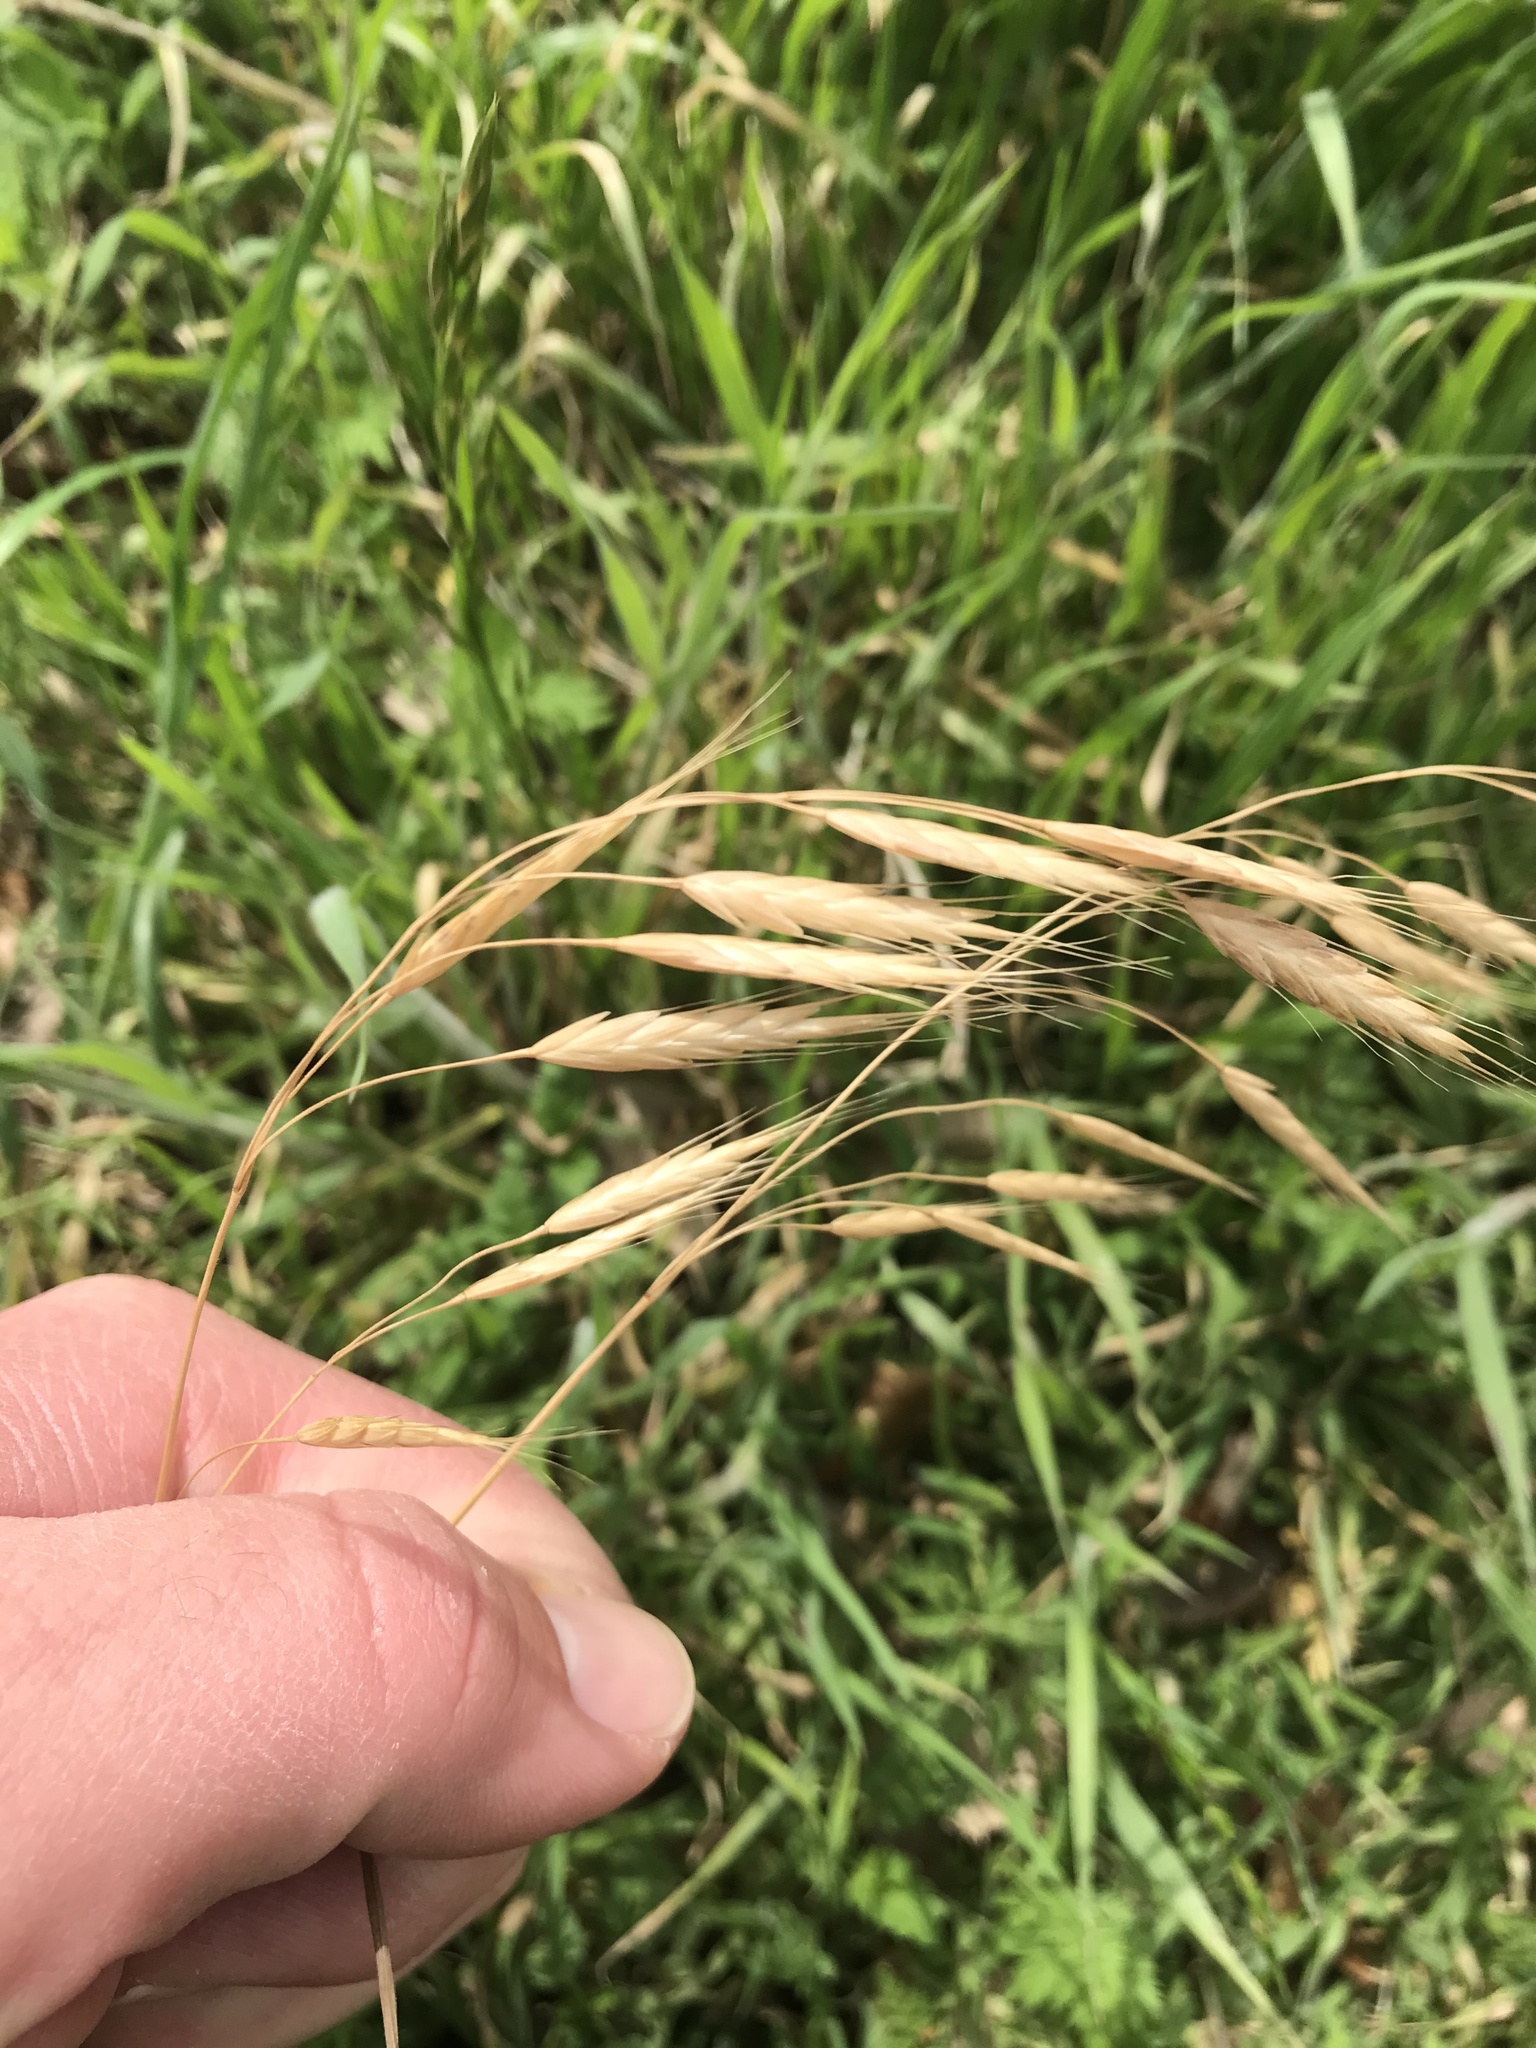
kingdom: Plantae
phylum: Tracheophyta
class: Liliopsida
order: Poales
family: Poaceae
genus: Bromus
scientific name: Bromus japonicus
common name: Japanese brome
